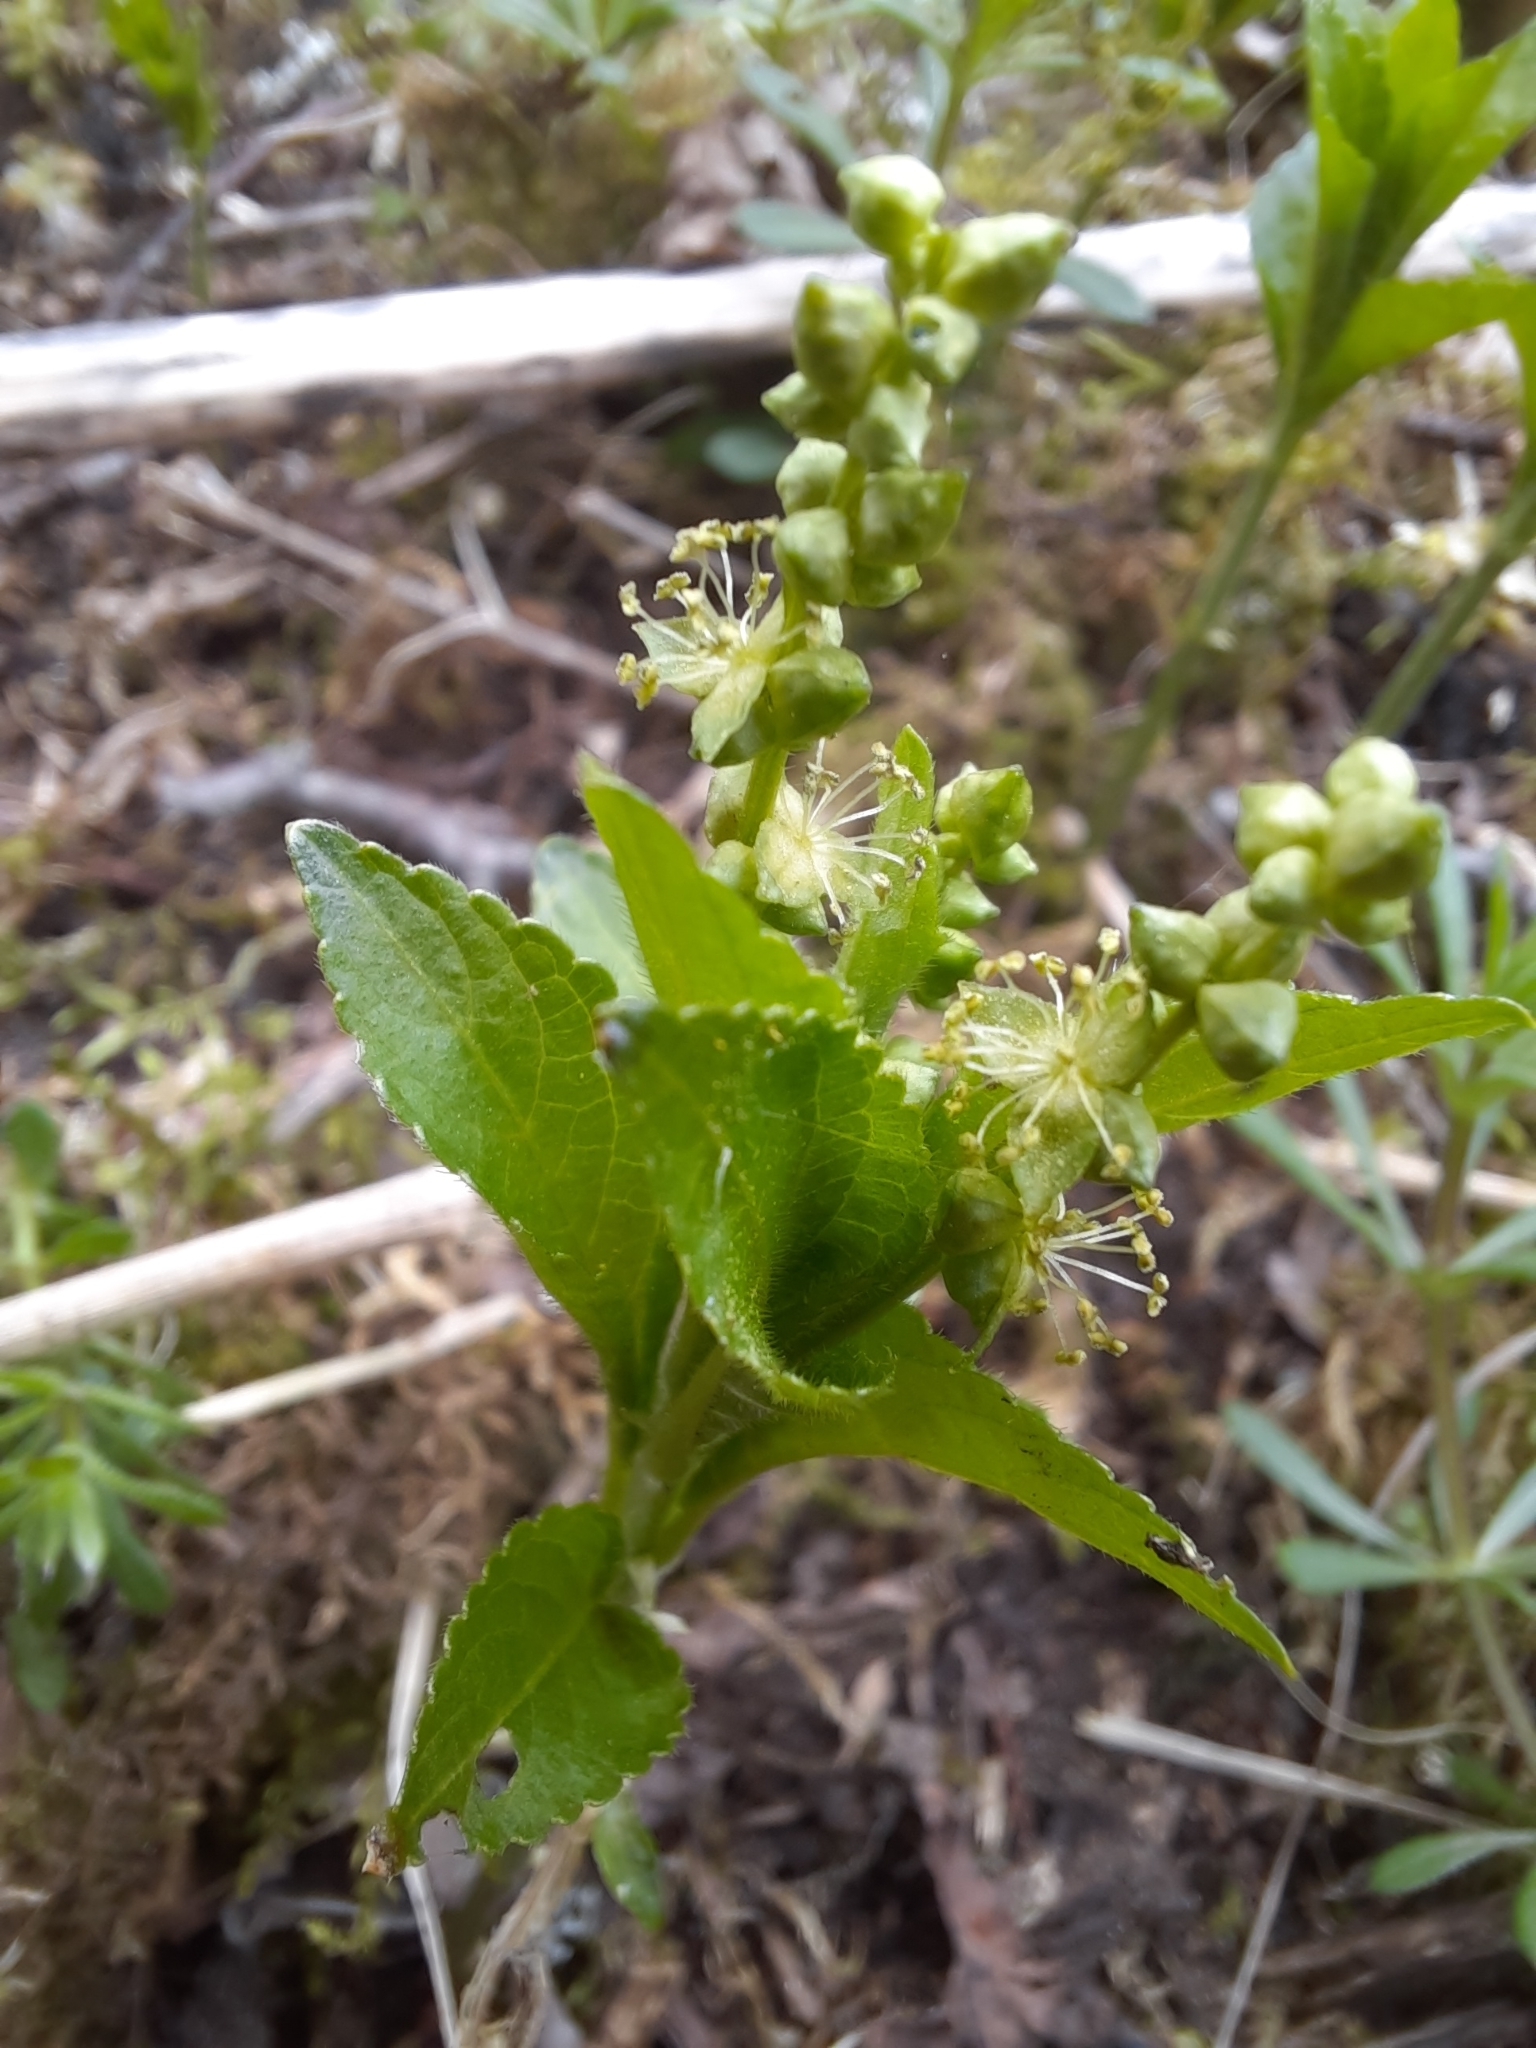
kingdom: Plantae
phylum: Tracheophyta
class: Magnoliopsida
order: Malpighiales
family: Euphorbiaceae
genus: Mercurialis
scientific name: Mercurialis perennis
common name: Dog mercury
